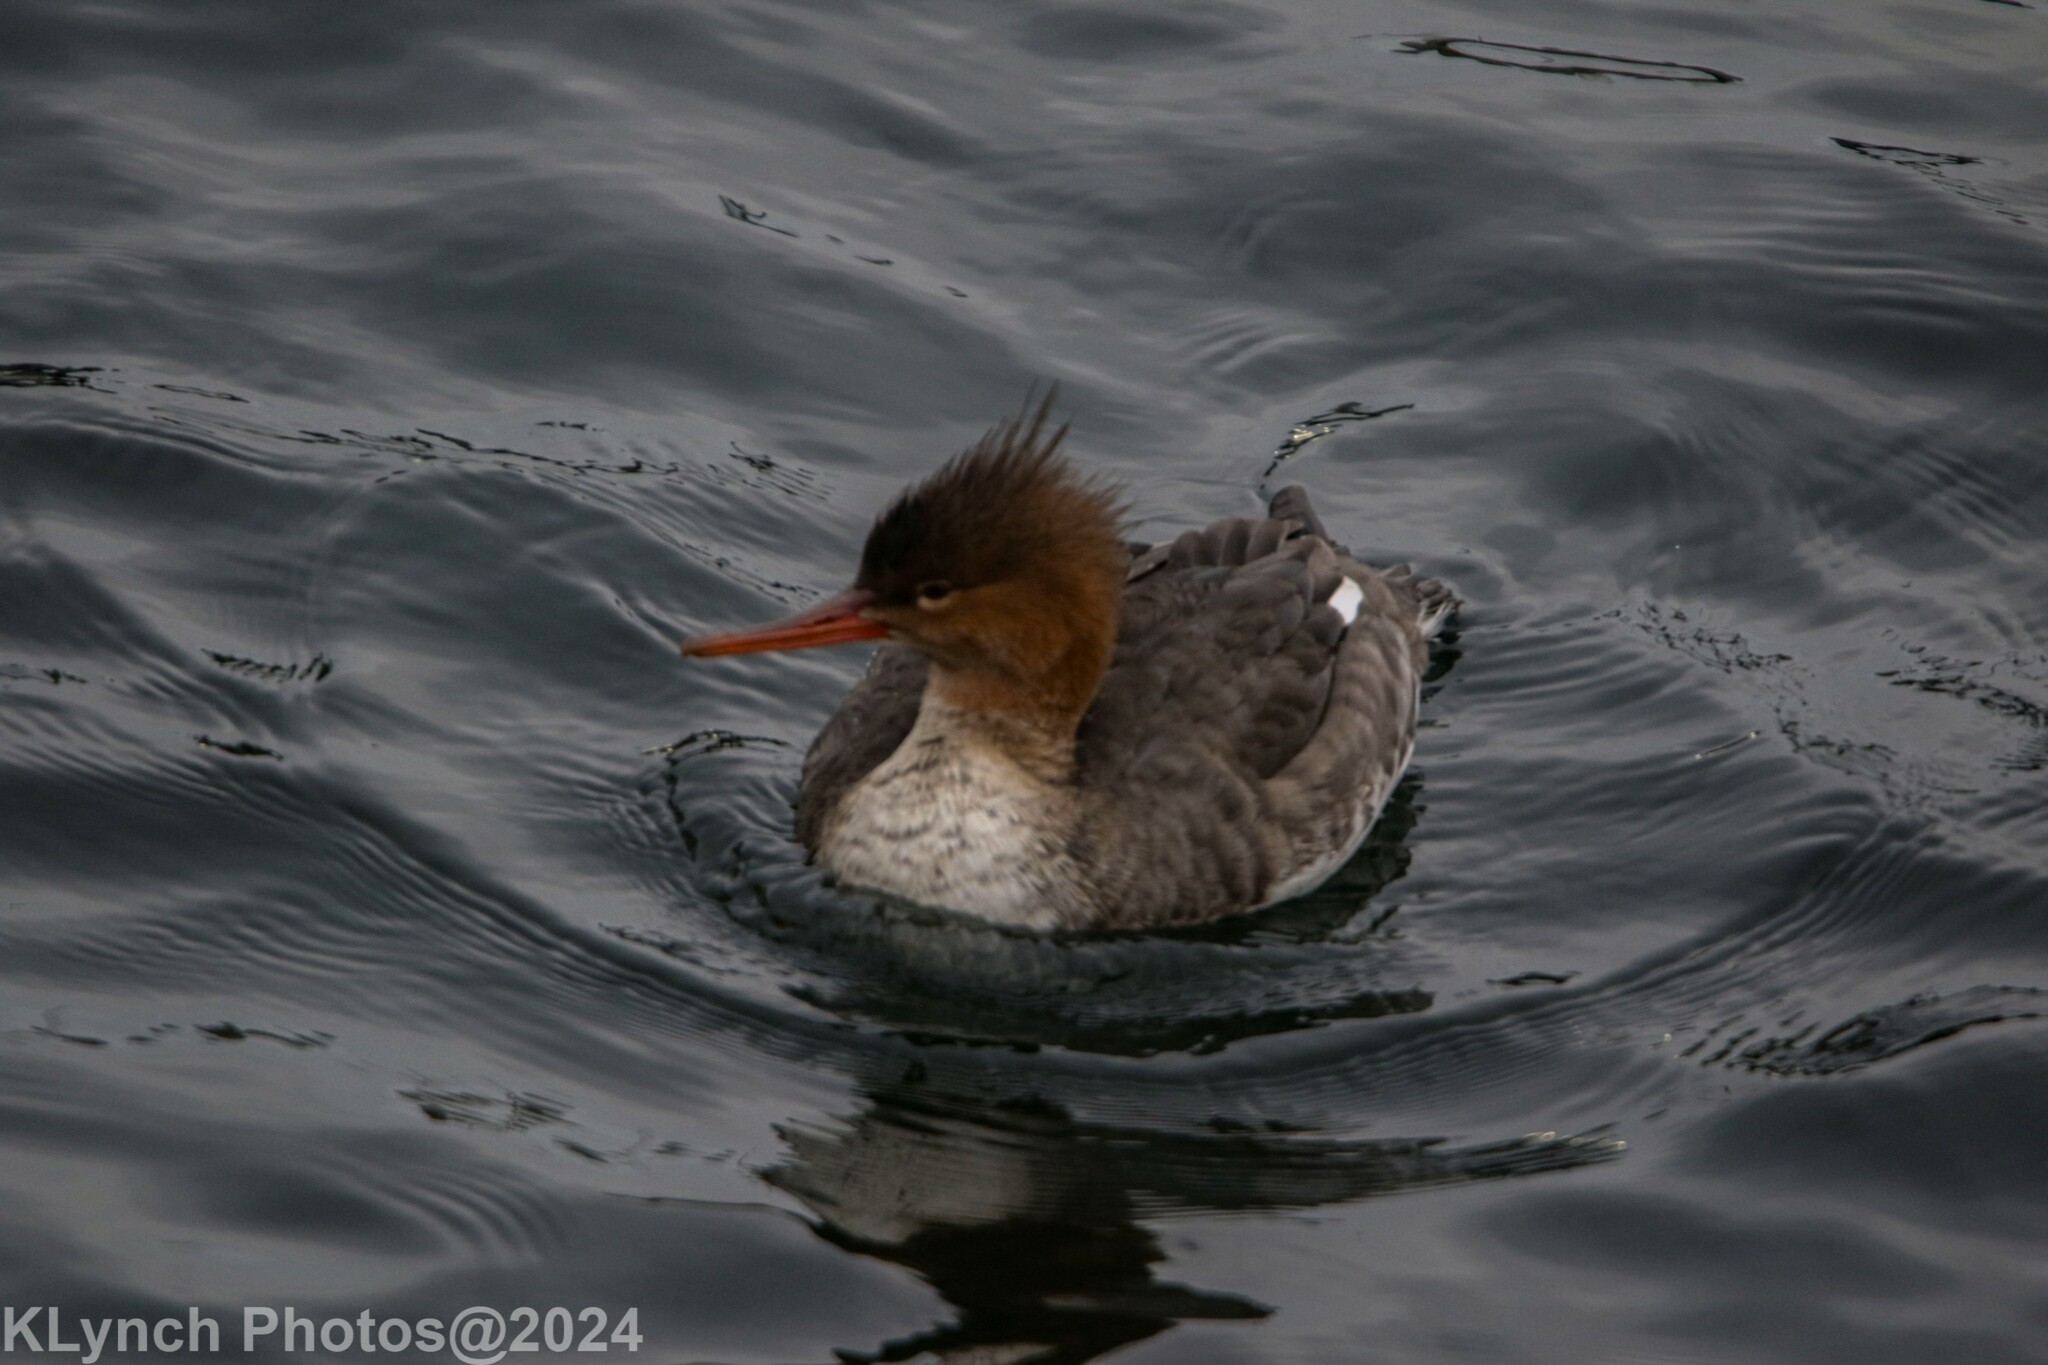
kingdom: Animalia
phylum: Chordata
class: Aves
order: Anseriformes
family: Anatidae
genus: Mergus
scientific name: Mergus serrator
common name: Red-breasted merganser
